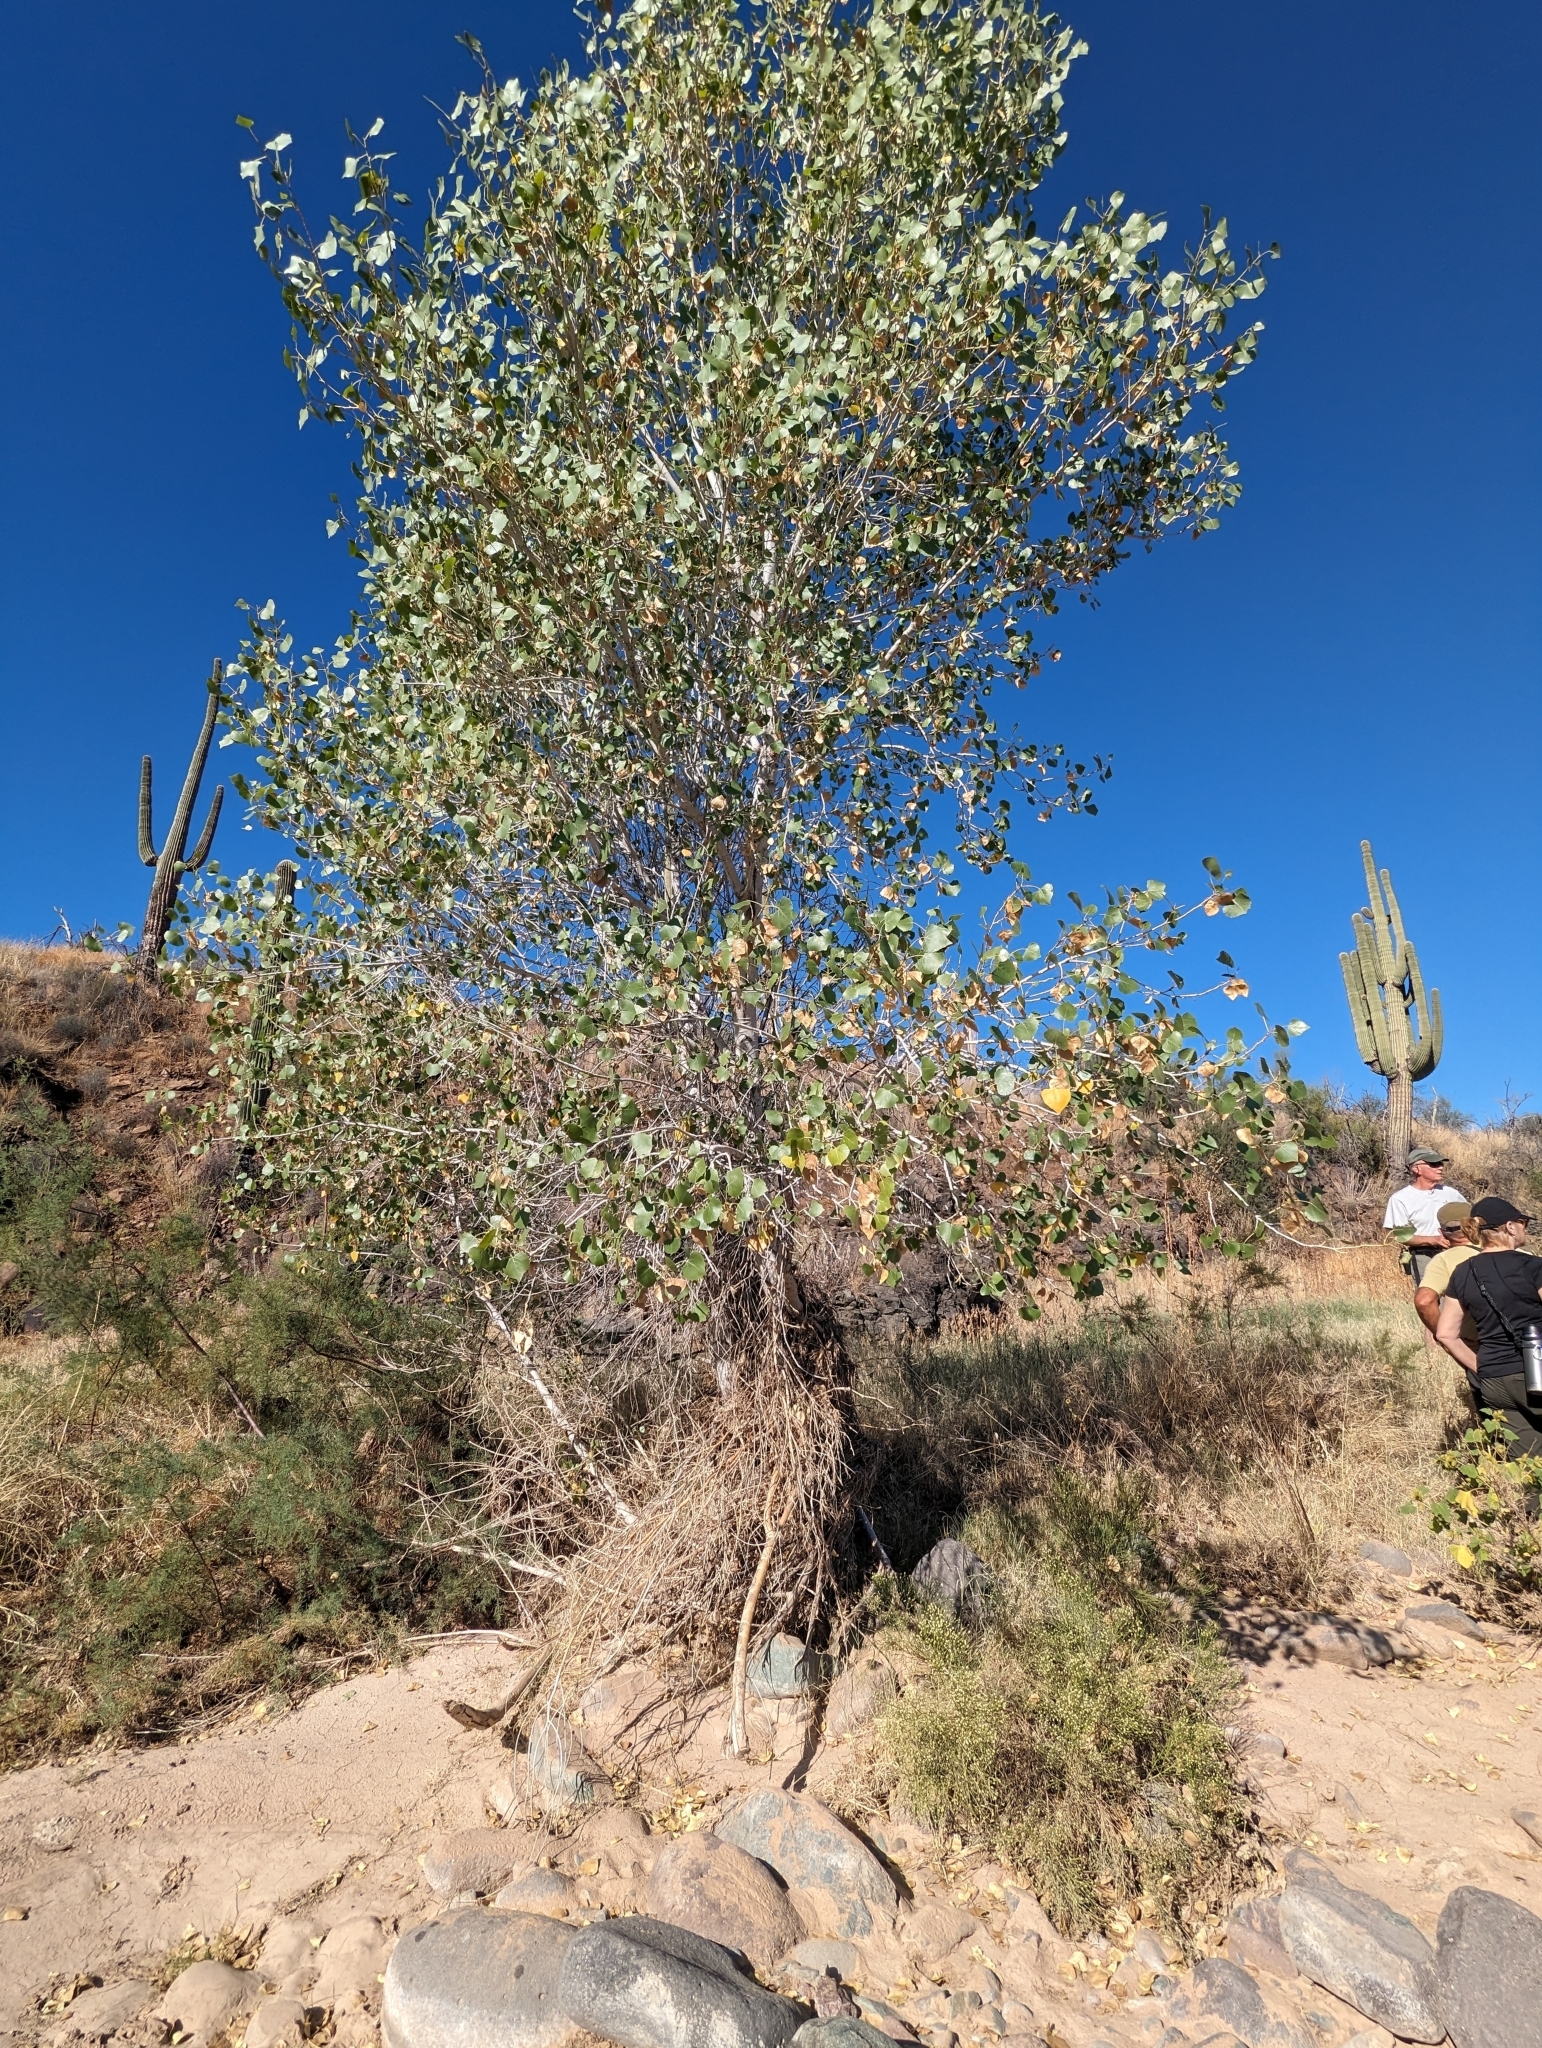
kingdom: Plantae
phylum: Tracheophyta
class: Magnoliopsida
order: Malpighiales
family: Salicaceae
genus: Populus
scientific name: Populus fremontii
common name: Fremont's cottonwood
